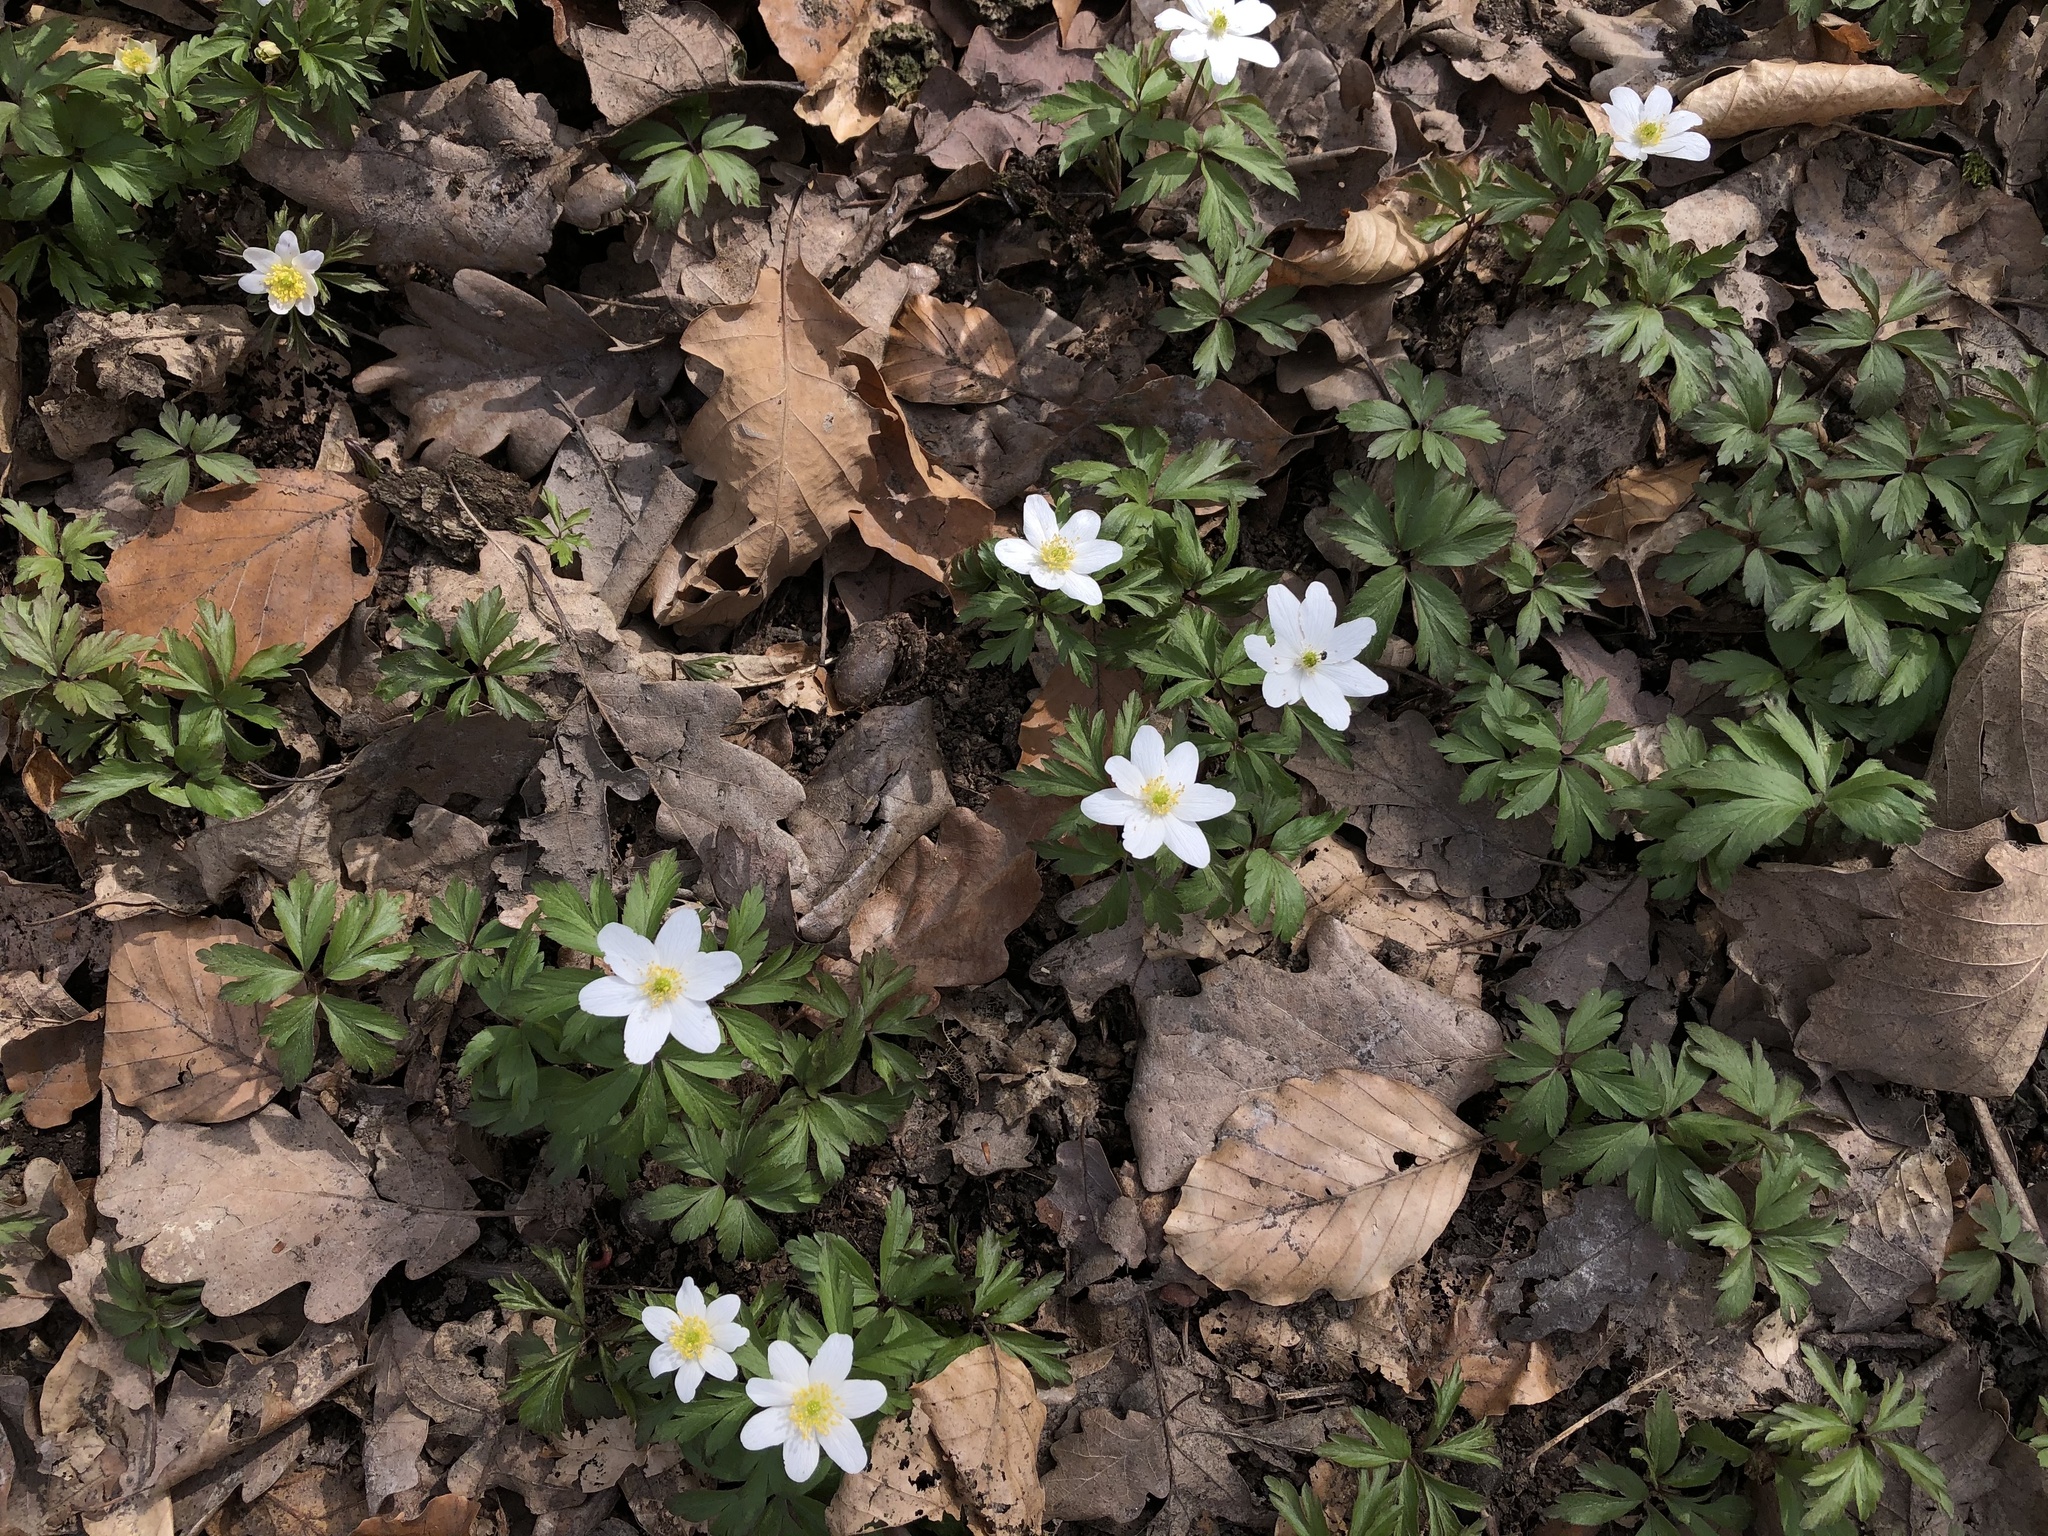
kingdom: Plantae
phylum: Tracheophyta
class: Magnoliopsida
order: Ranunculales
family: Ranunculaceae
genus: Anemone
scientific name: Anemone nemorosa
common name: Wood anemone
